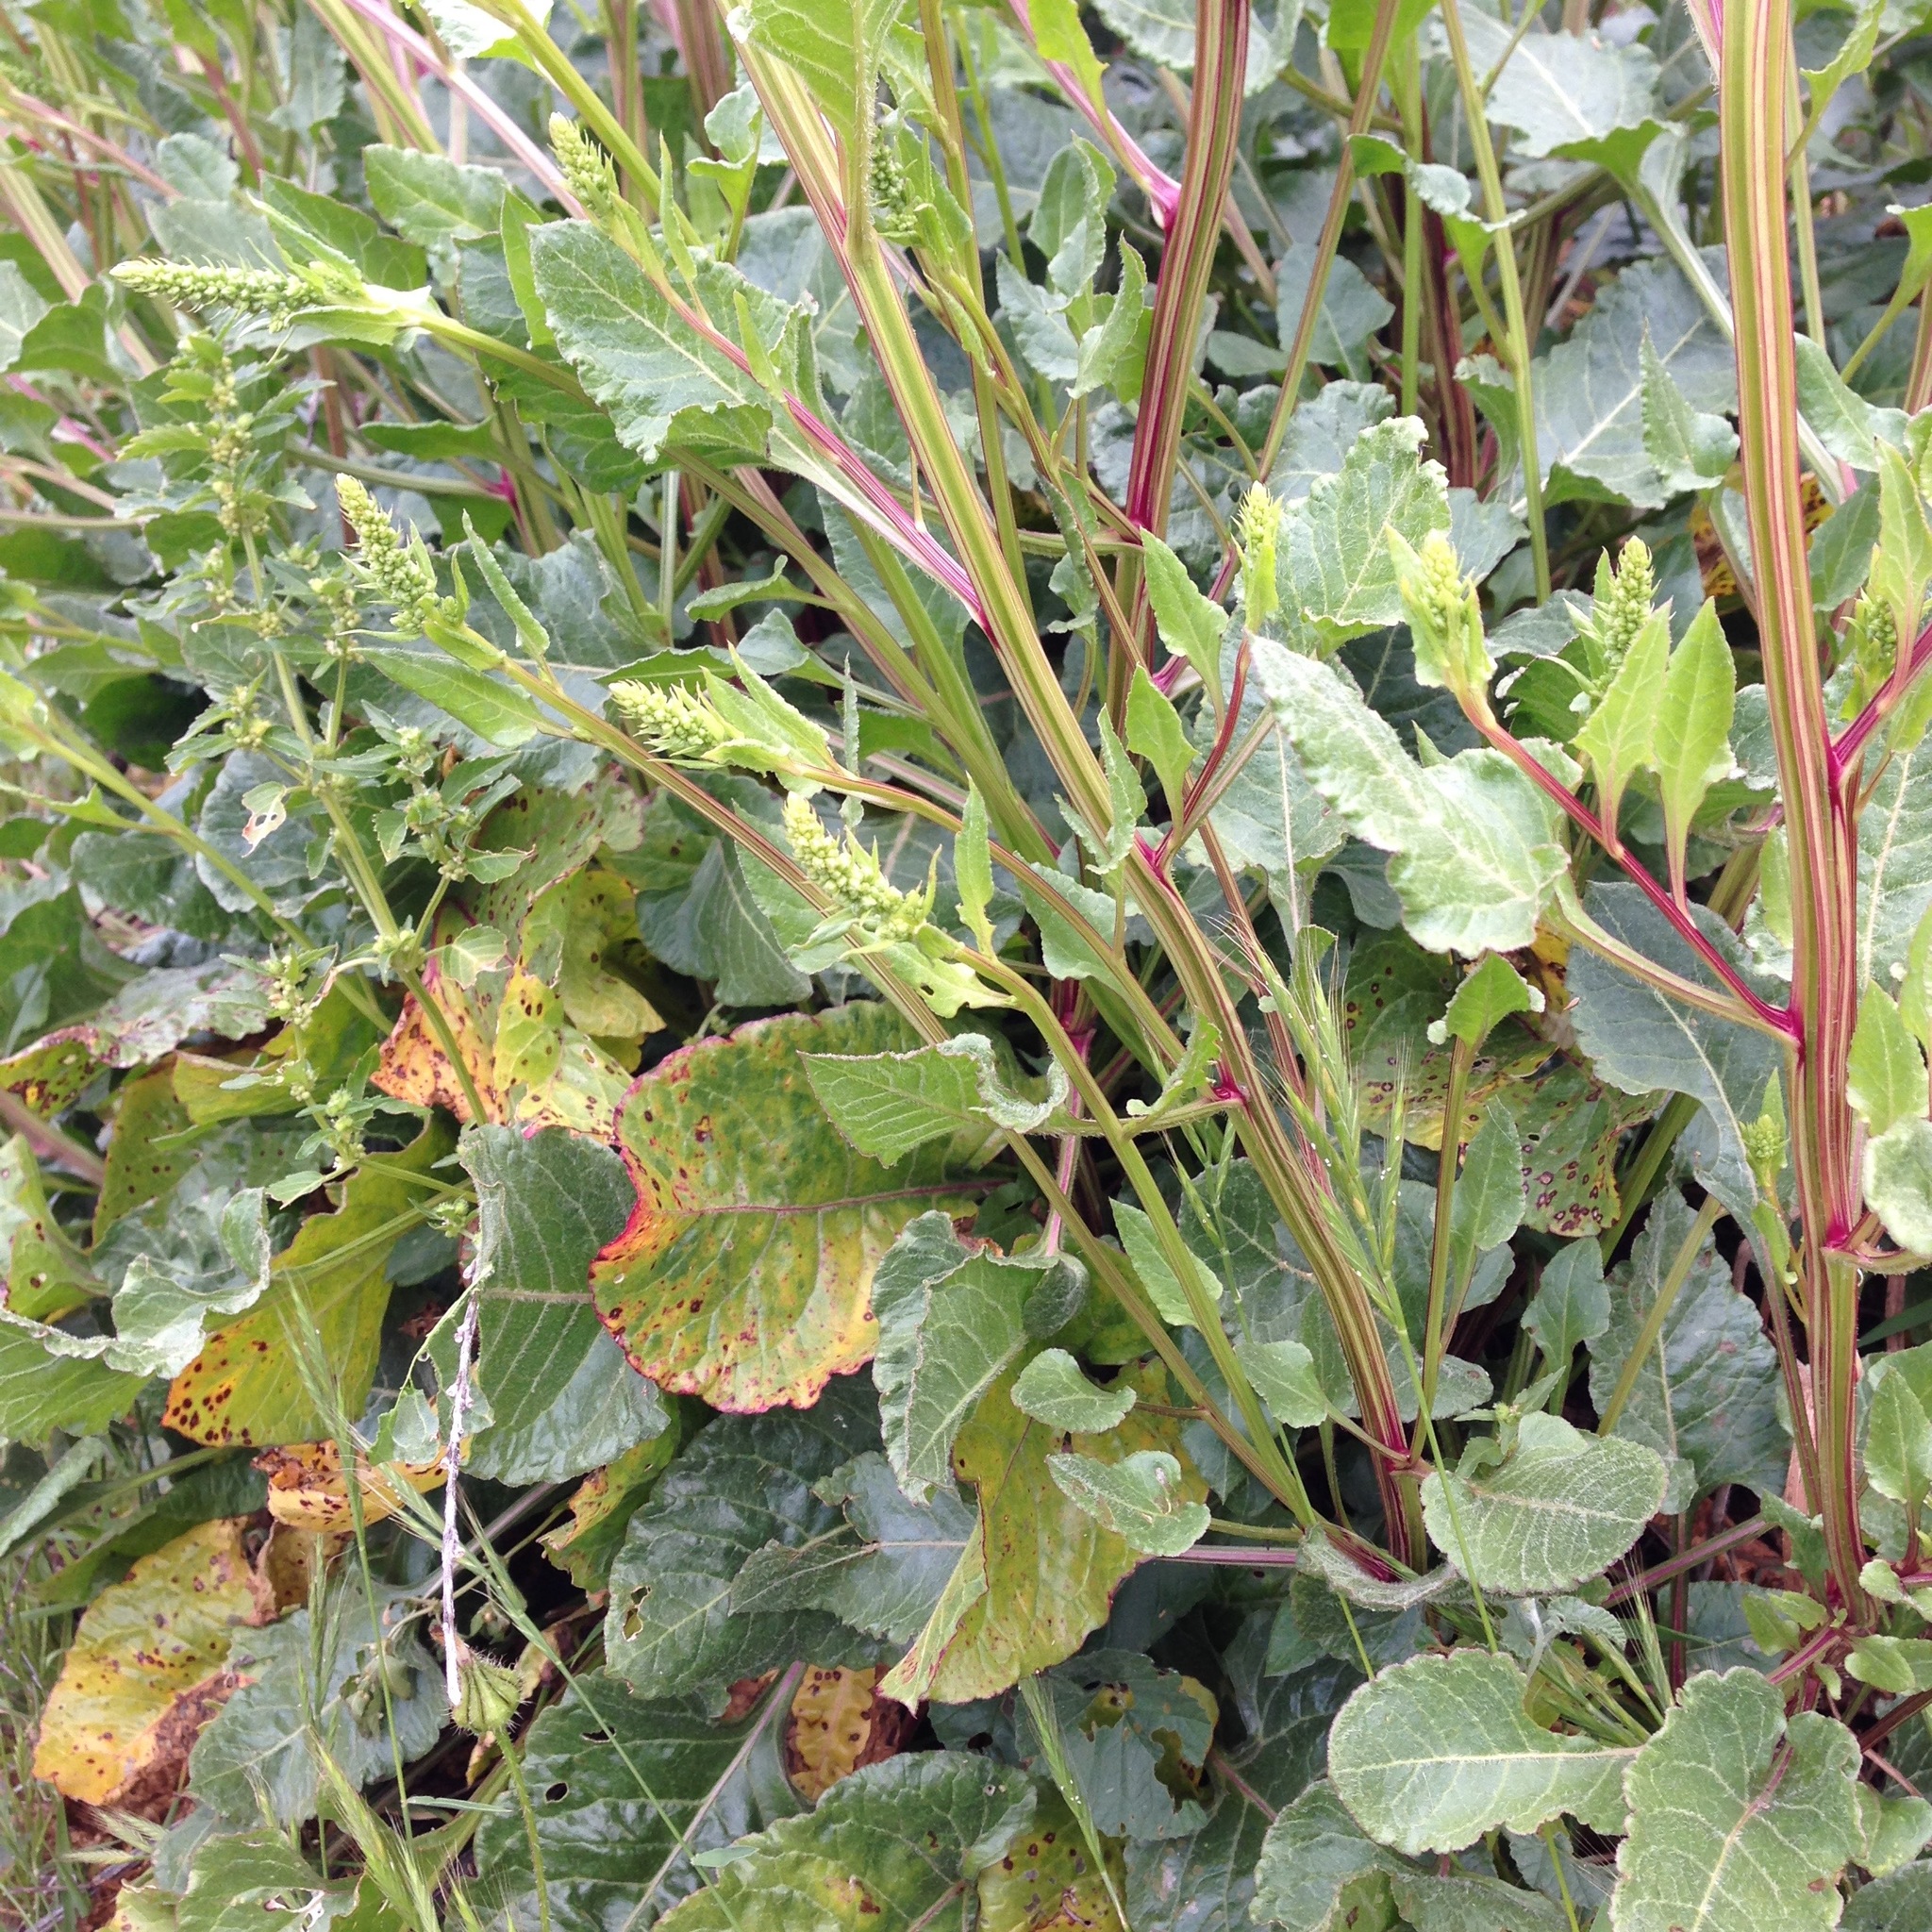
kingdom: Plantae
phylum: Tracheophyta
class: Magnoliopsida
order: Caryophyllales
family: Amaranthaceae
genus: Beta
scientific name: Beta vulgaris
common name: Beet
